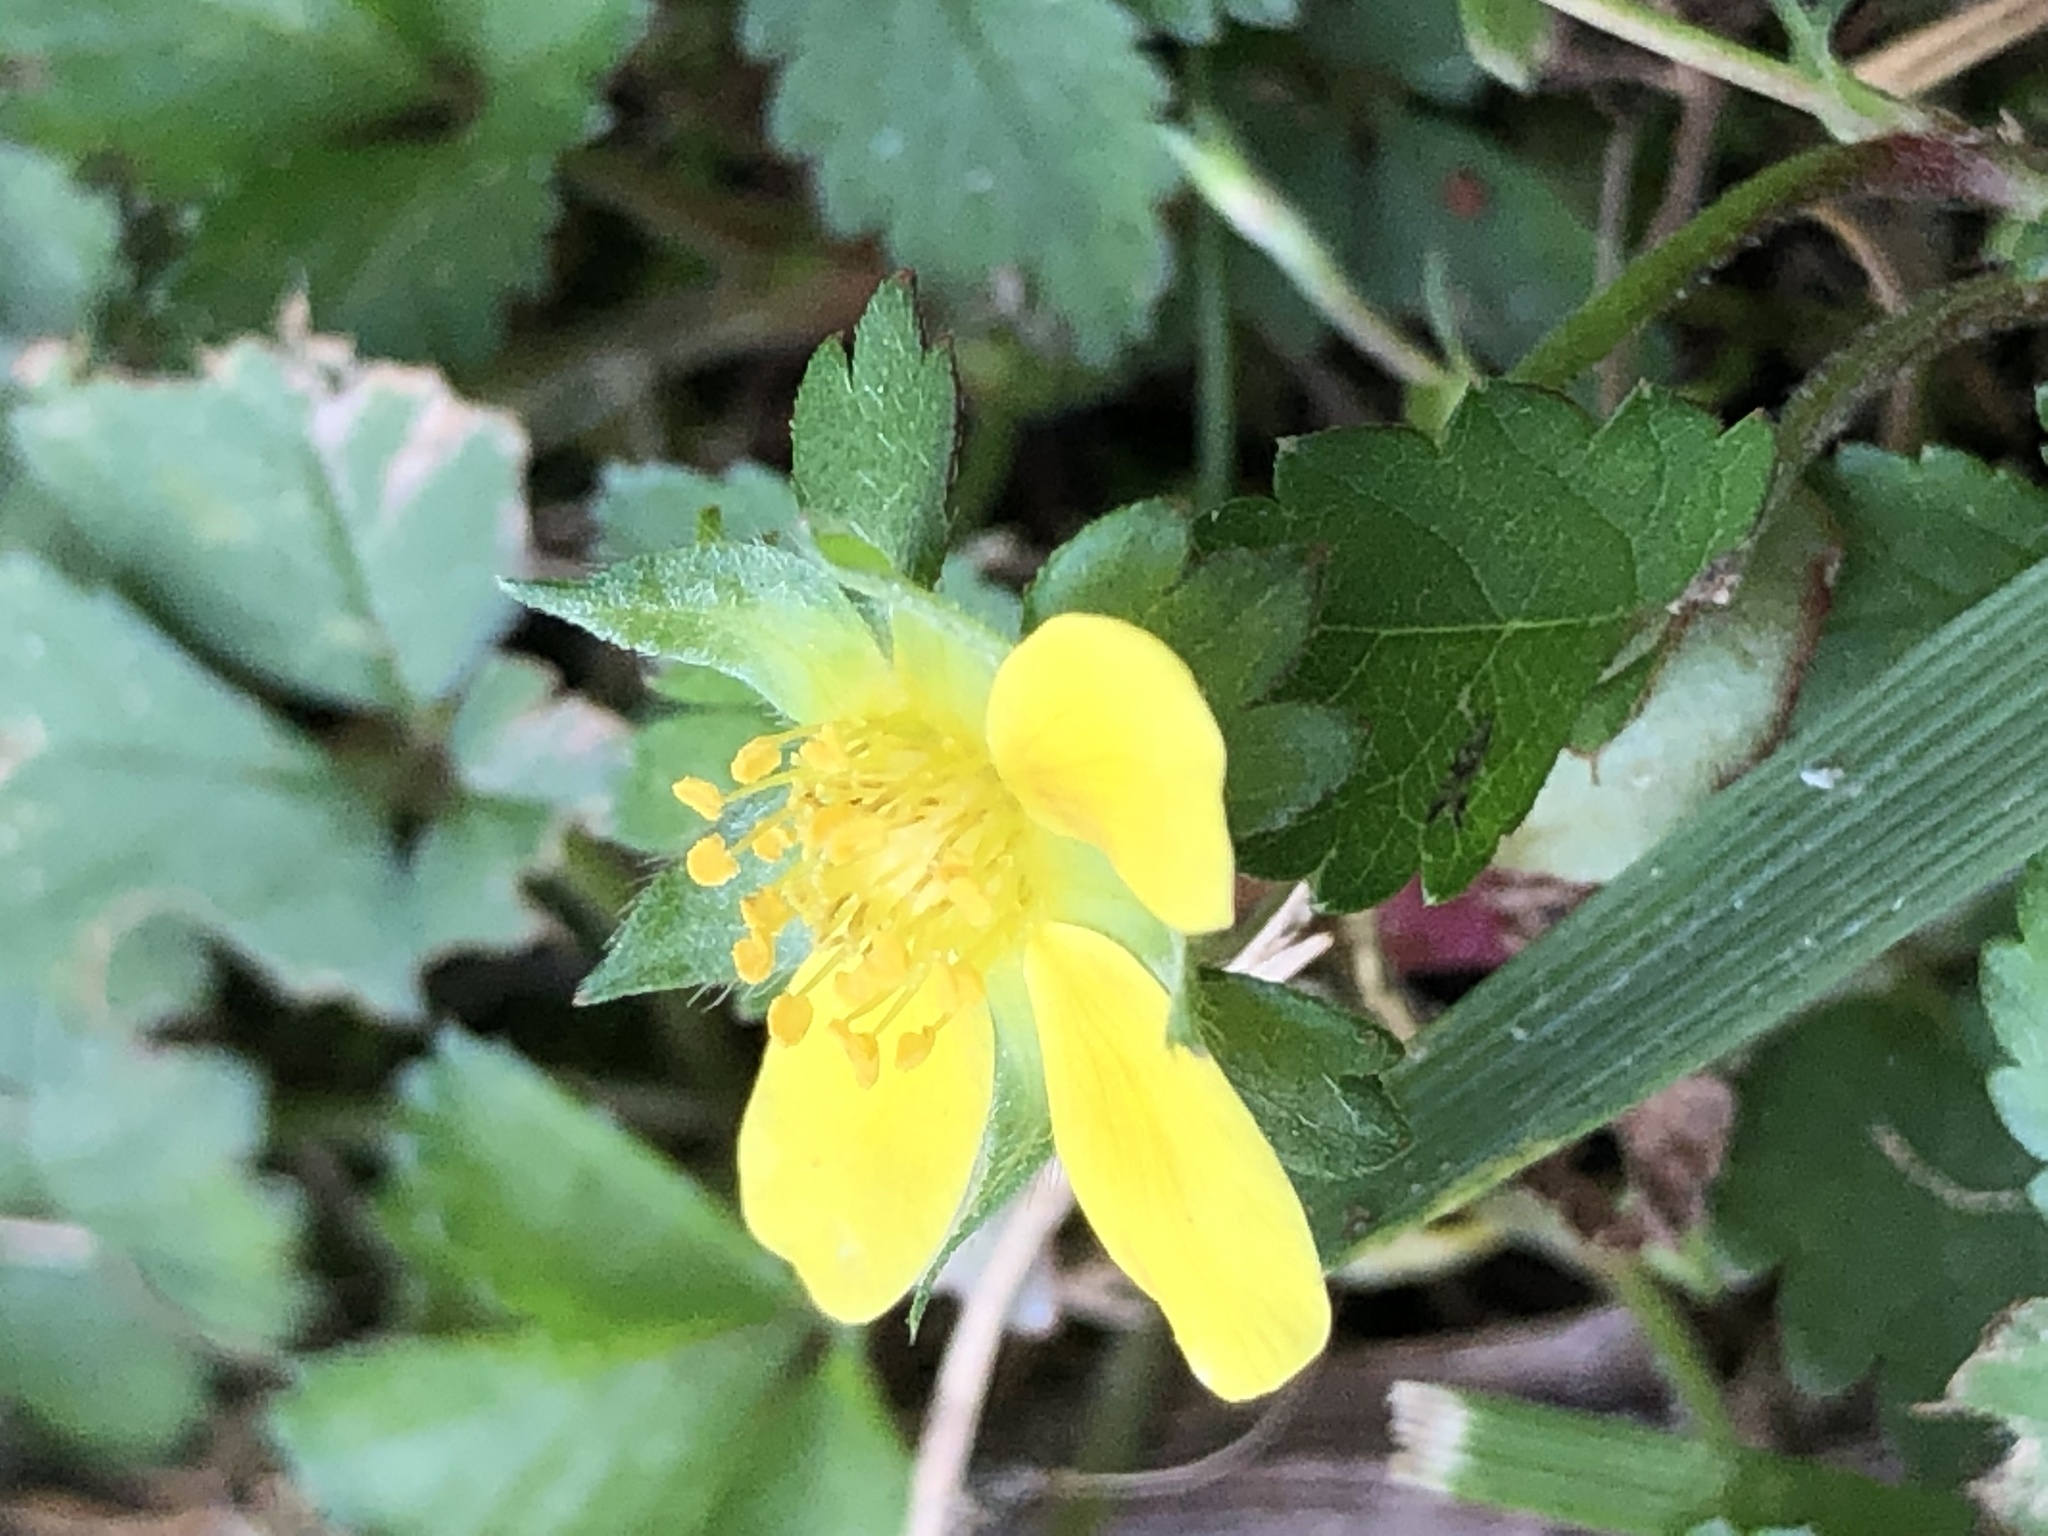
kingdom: Plantae
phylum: Tracheophyta
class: Magnoliopsida
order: Rosales
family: Rosaceae
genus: Potentilla
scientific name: Potentilla indica
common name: Yellow-flowered strawberry
